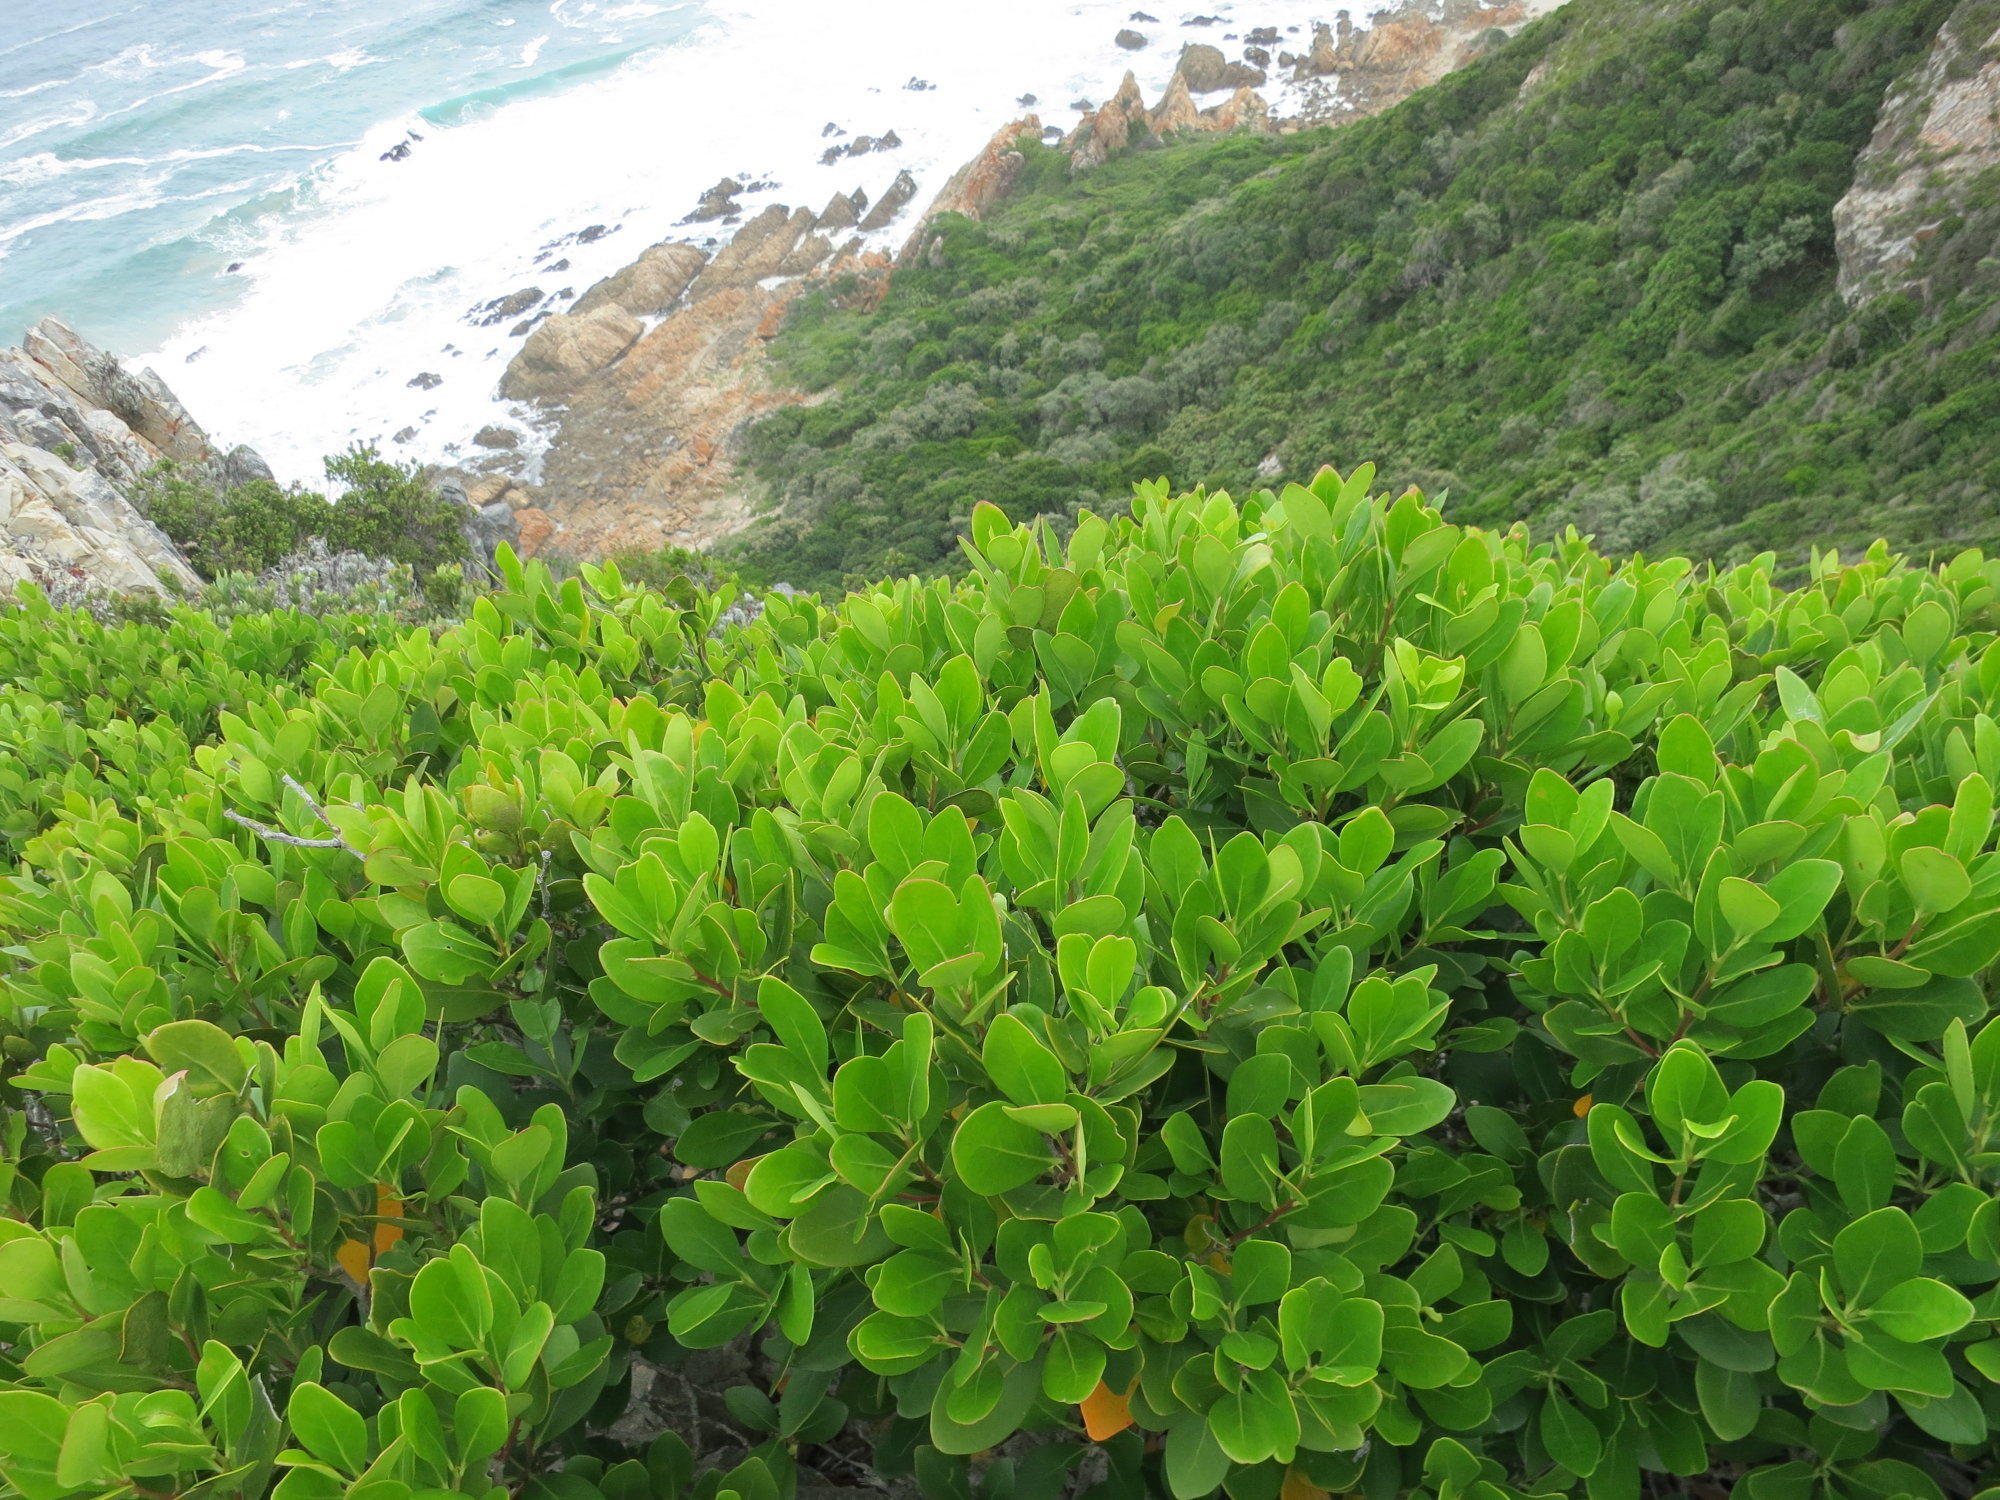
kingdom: Plantae
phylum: Tracheophyta
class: Magnoliopsida
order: Celastrales
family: Celastraceae
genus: Pterocelastrus
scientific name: Pterocelastrus tricuspidatus
